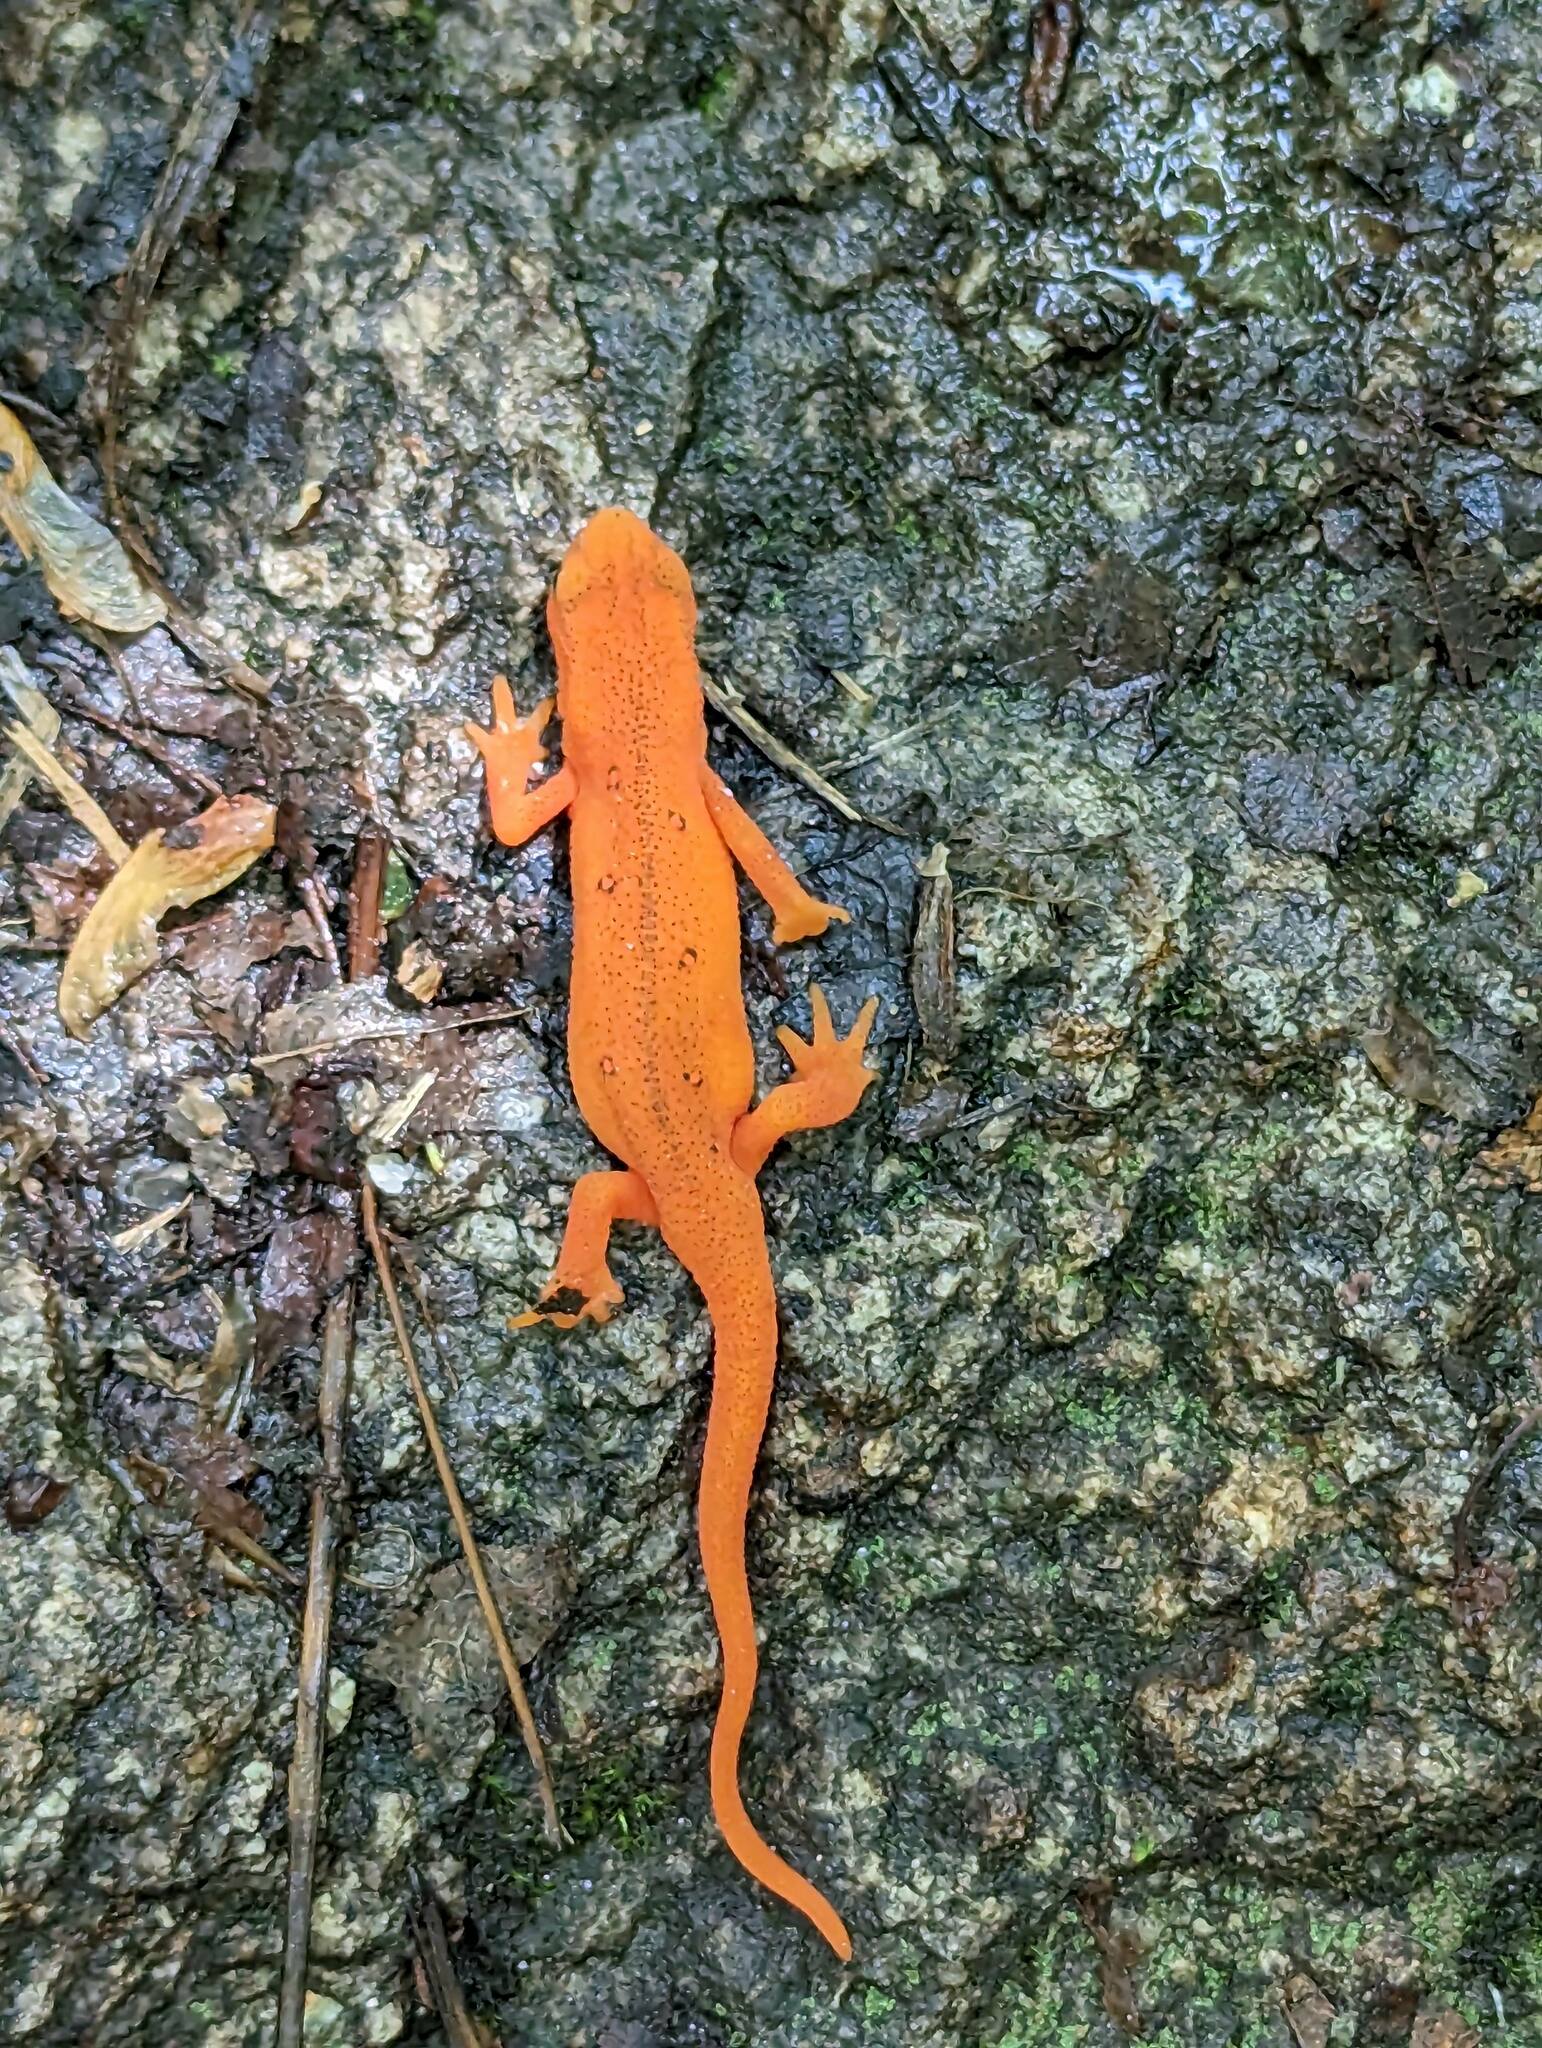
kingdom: Animalia
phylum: Chordata
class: Amphibia
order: Caudata
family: Salamandridae
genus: Notophthalmus
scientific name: Notophthalmus viridescens
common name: Eastern newt
